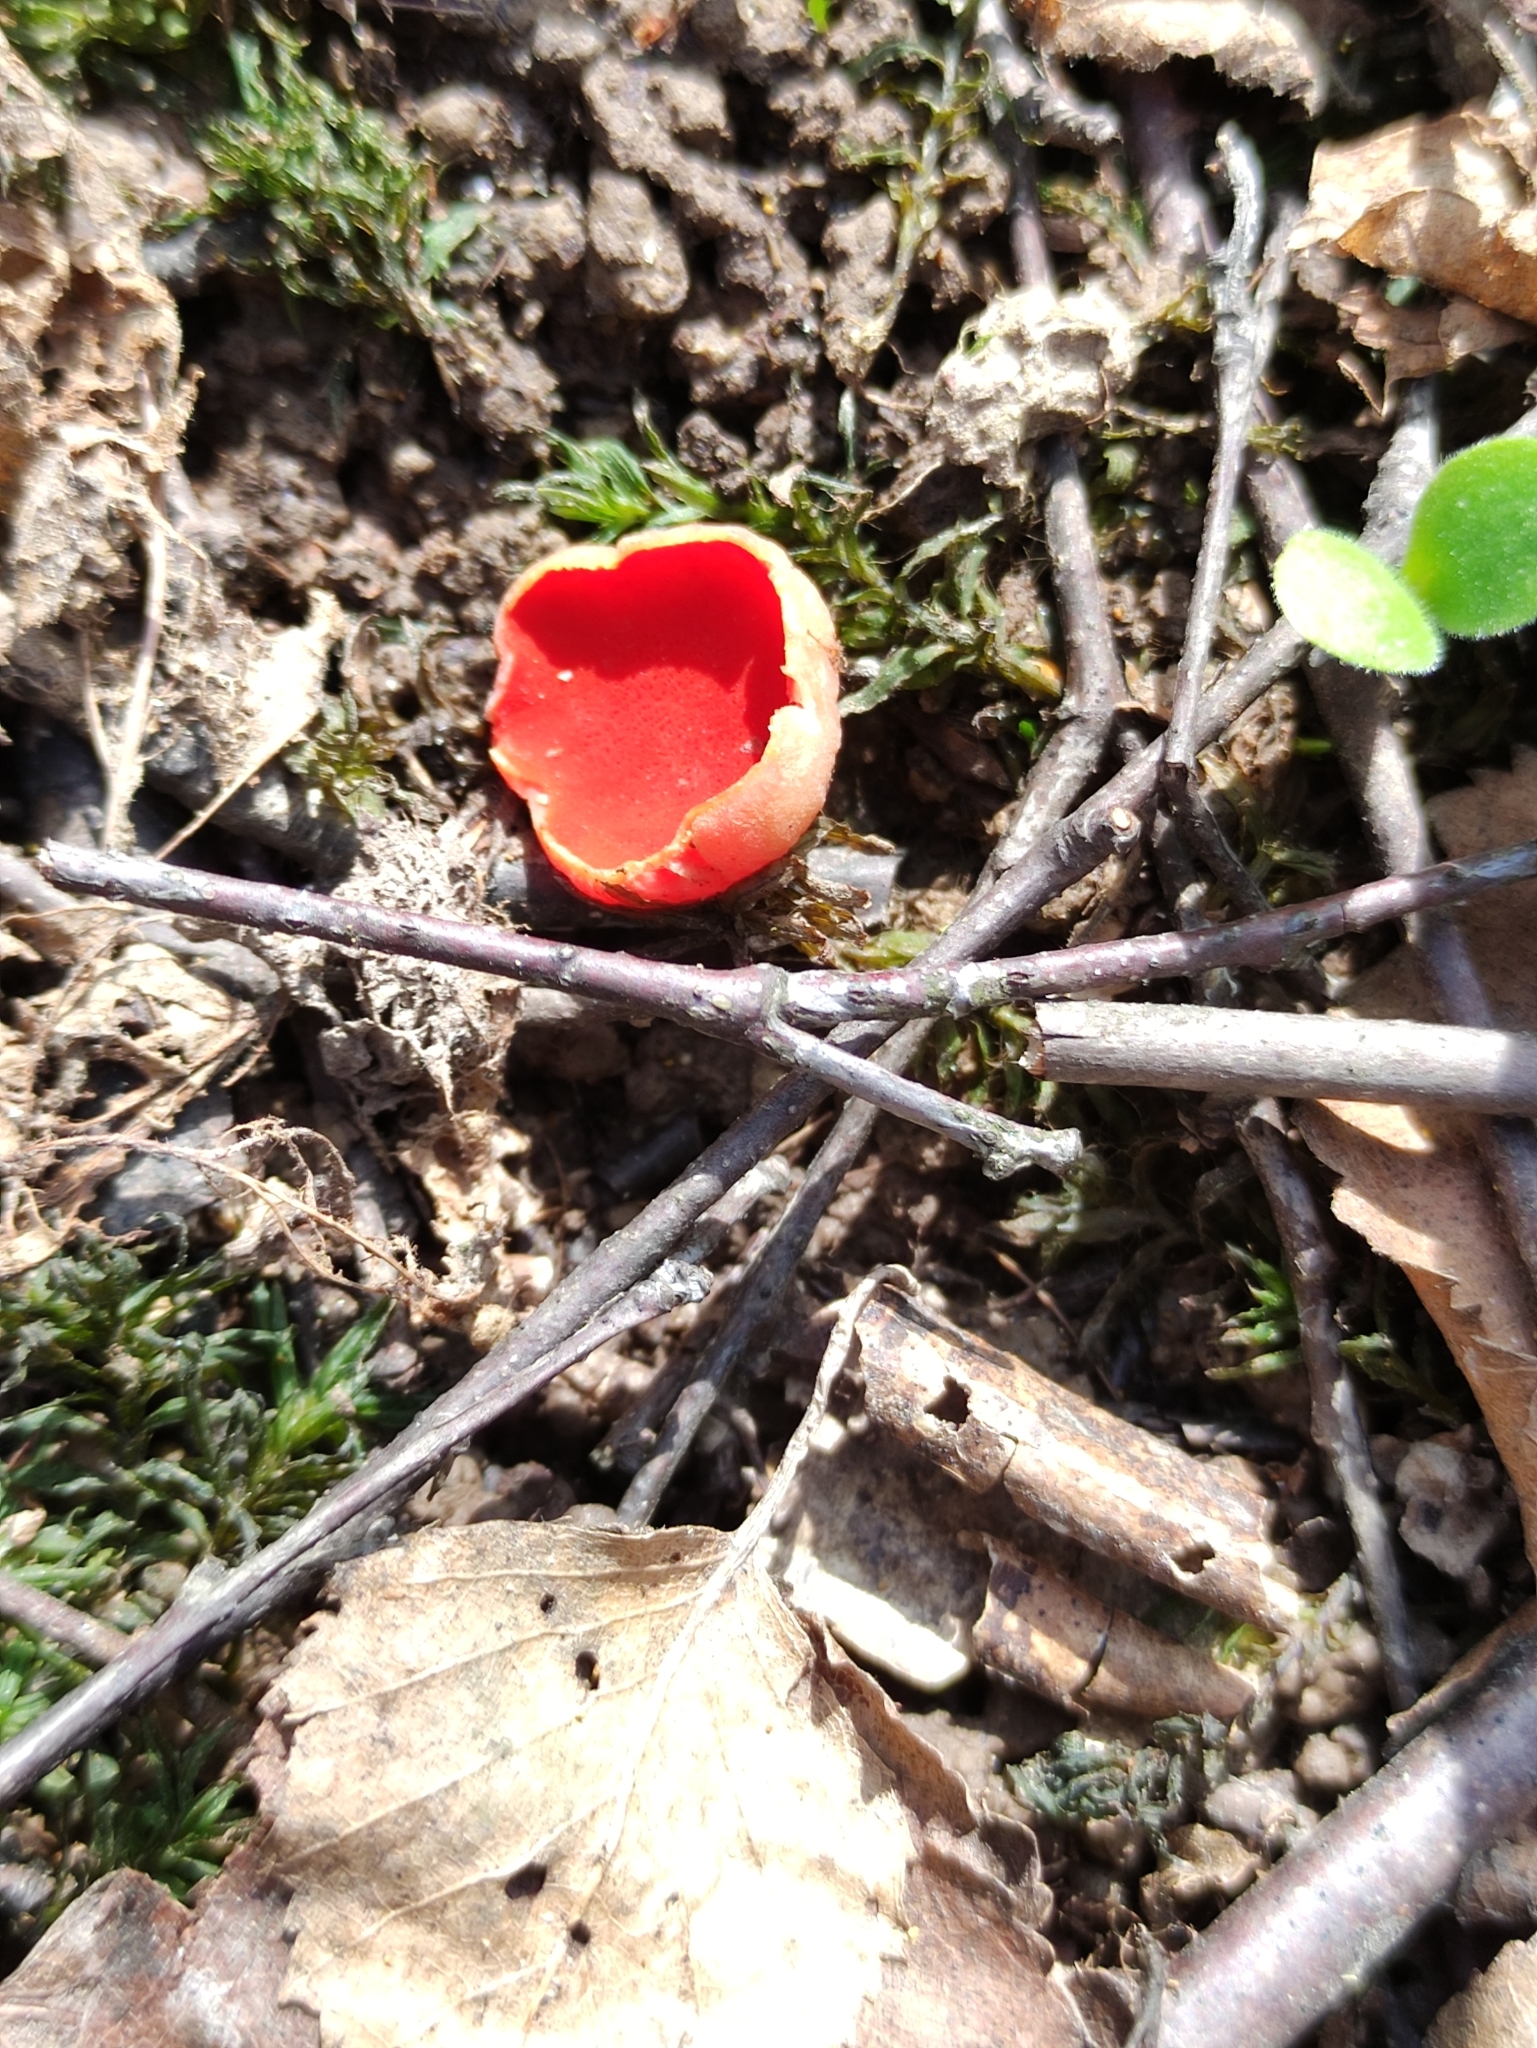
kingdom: Fungi
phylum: Ascomycota
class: Pezizomycetes
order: Pezizales
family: Sarcoscyphaceae
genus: Sarcoscypha
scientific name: Sarcoscypha austriaca
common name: Scarlet elfcup
